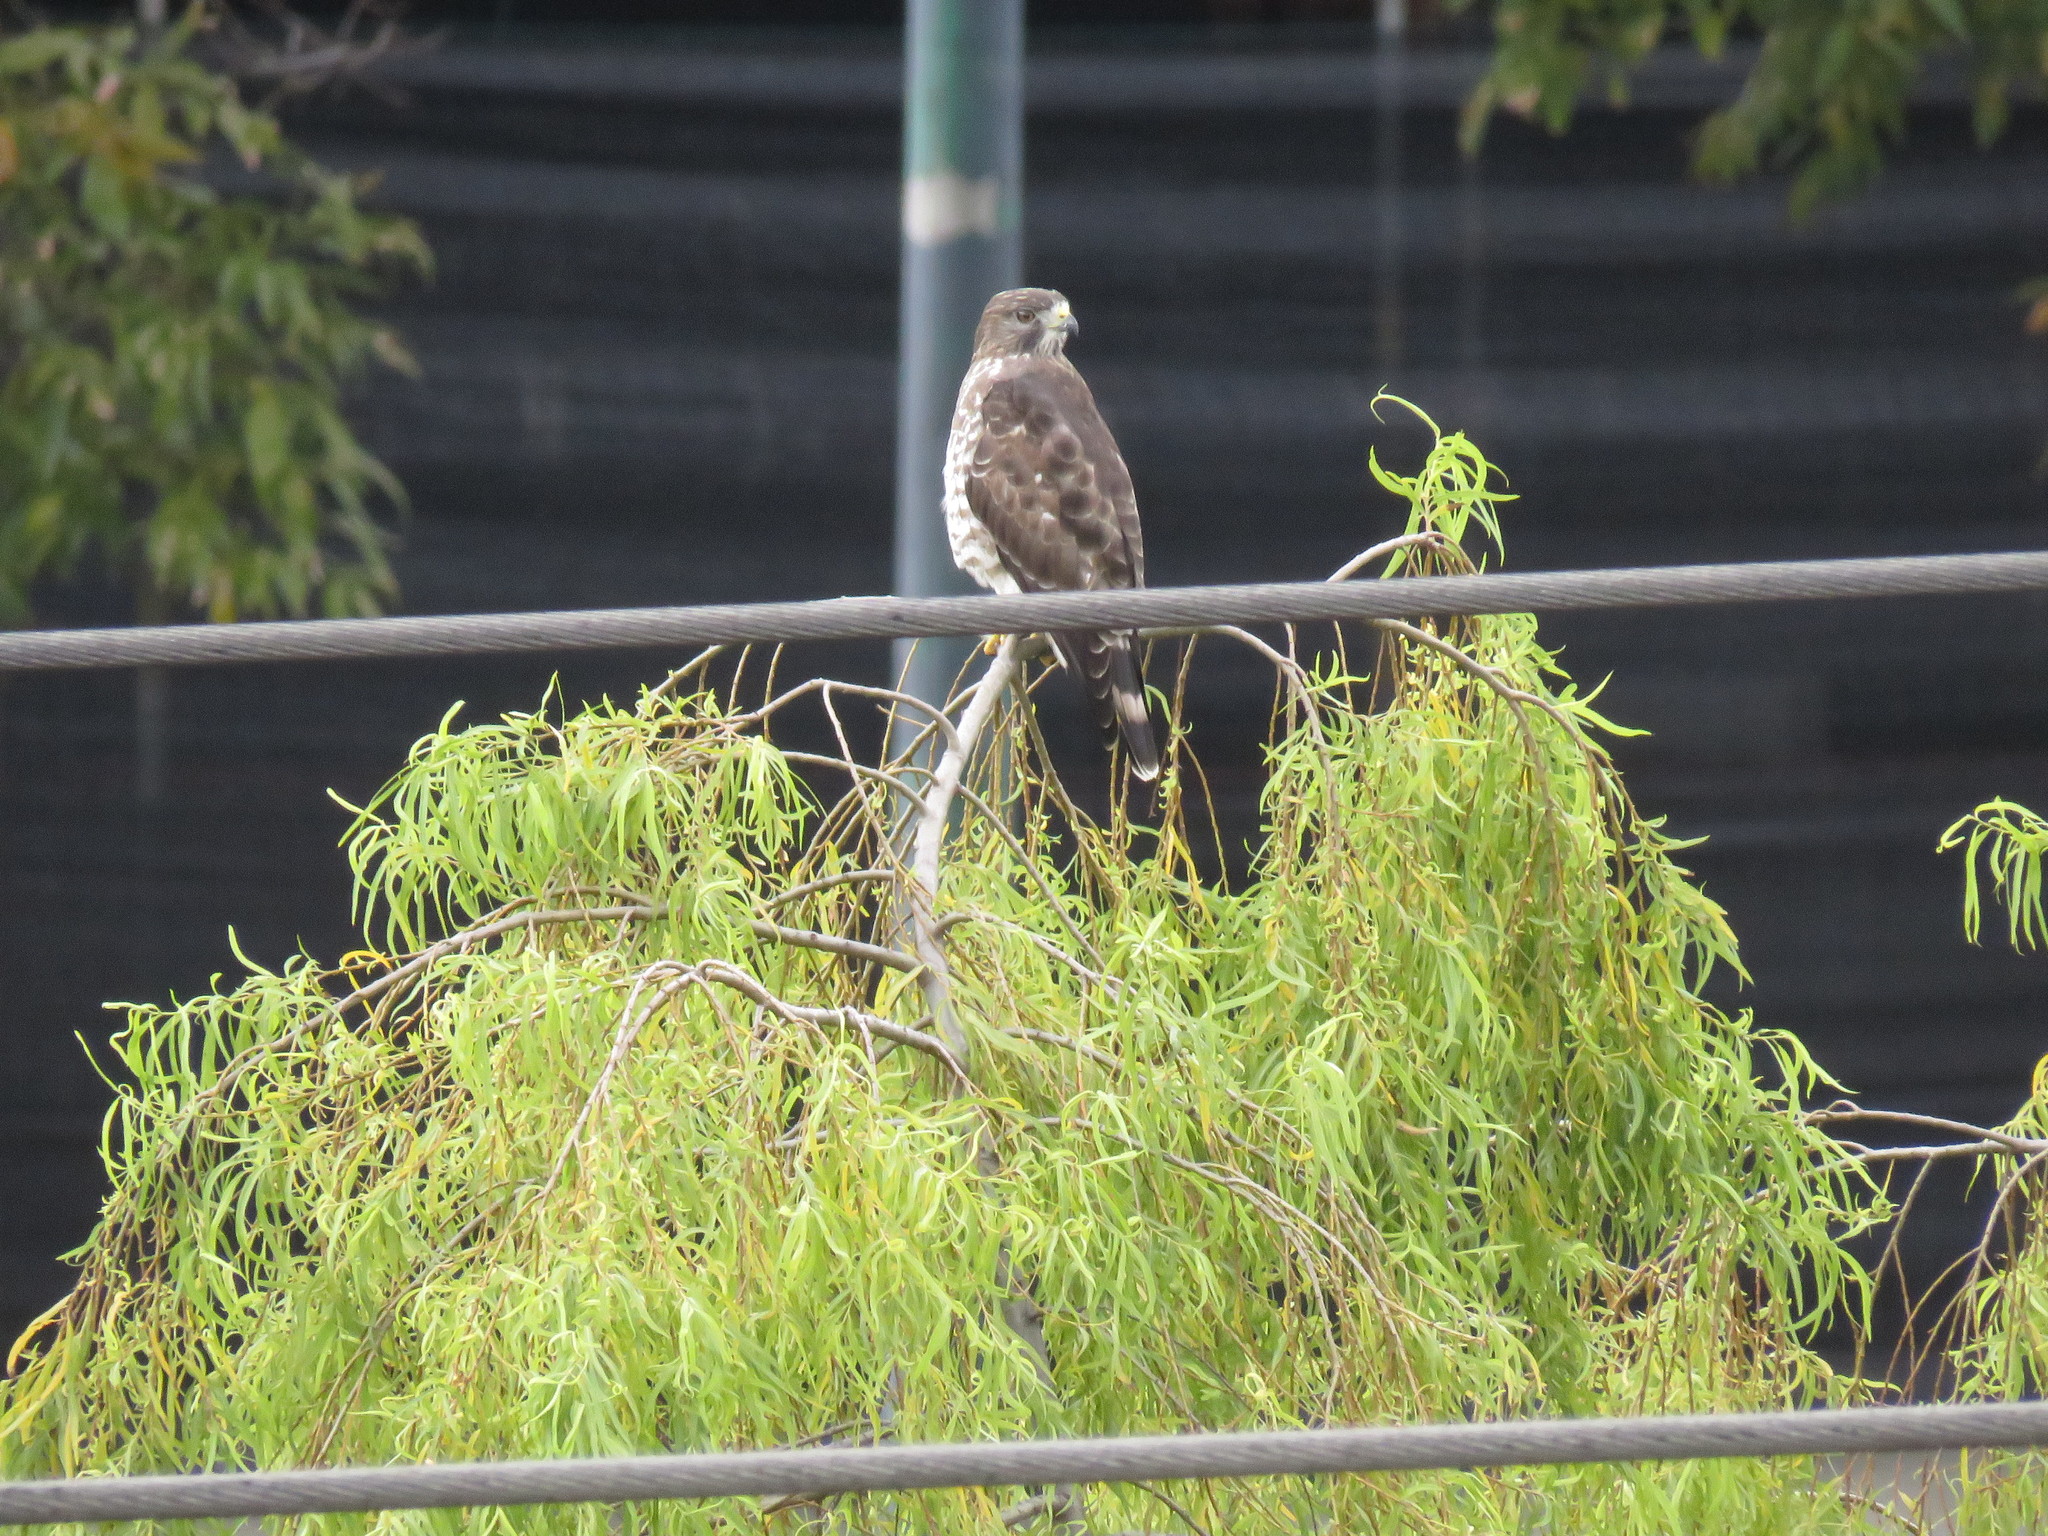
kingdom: Animalia
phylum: Chordata
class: Aves
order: Accipitriformes
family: Accipitridae
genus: Buteo
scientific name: Buteo platypterus
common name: Broad-winged hawk
